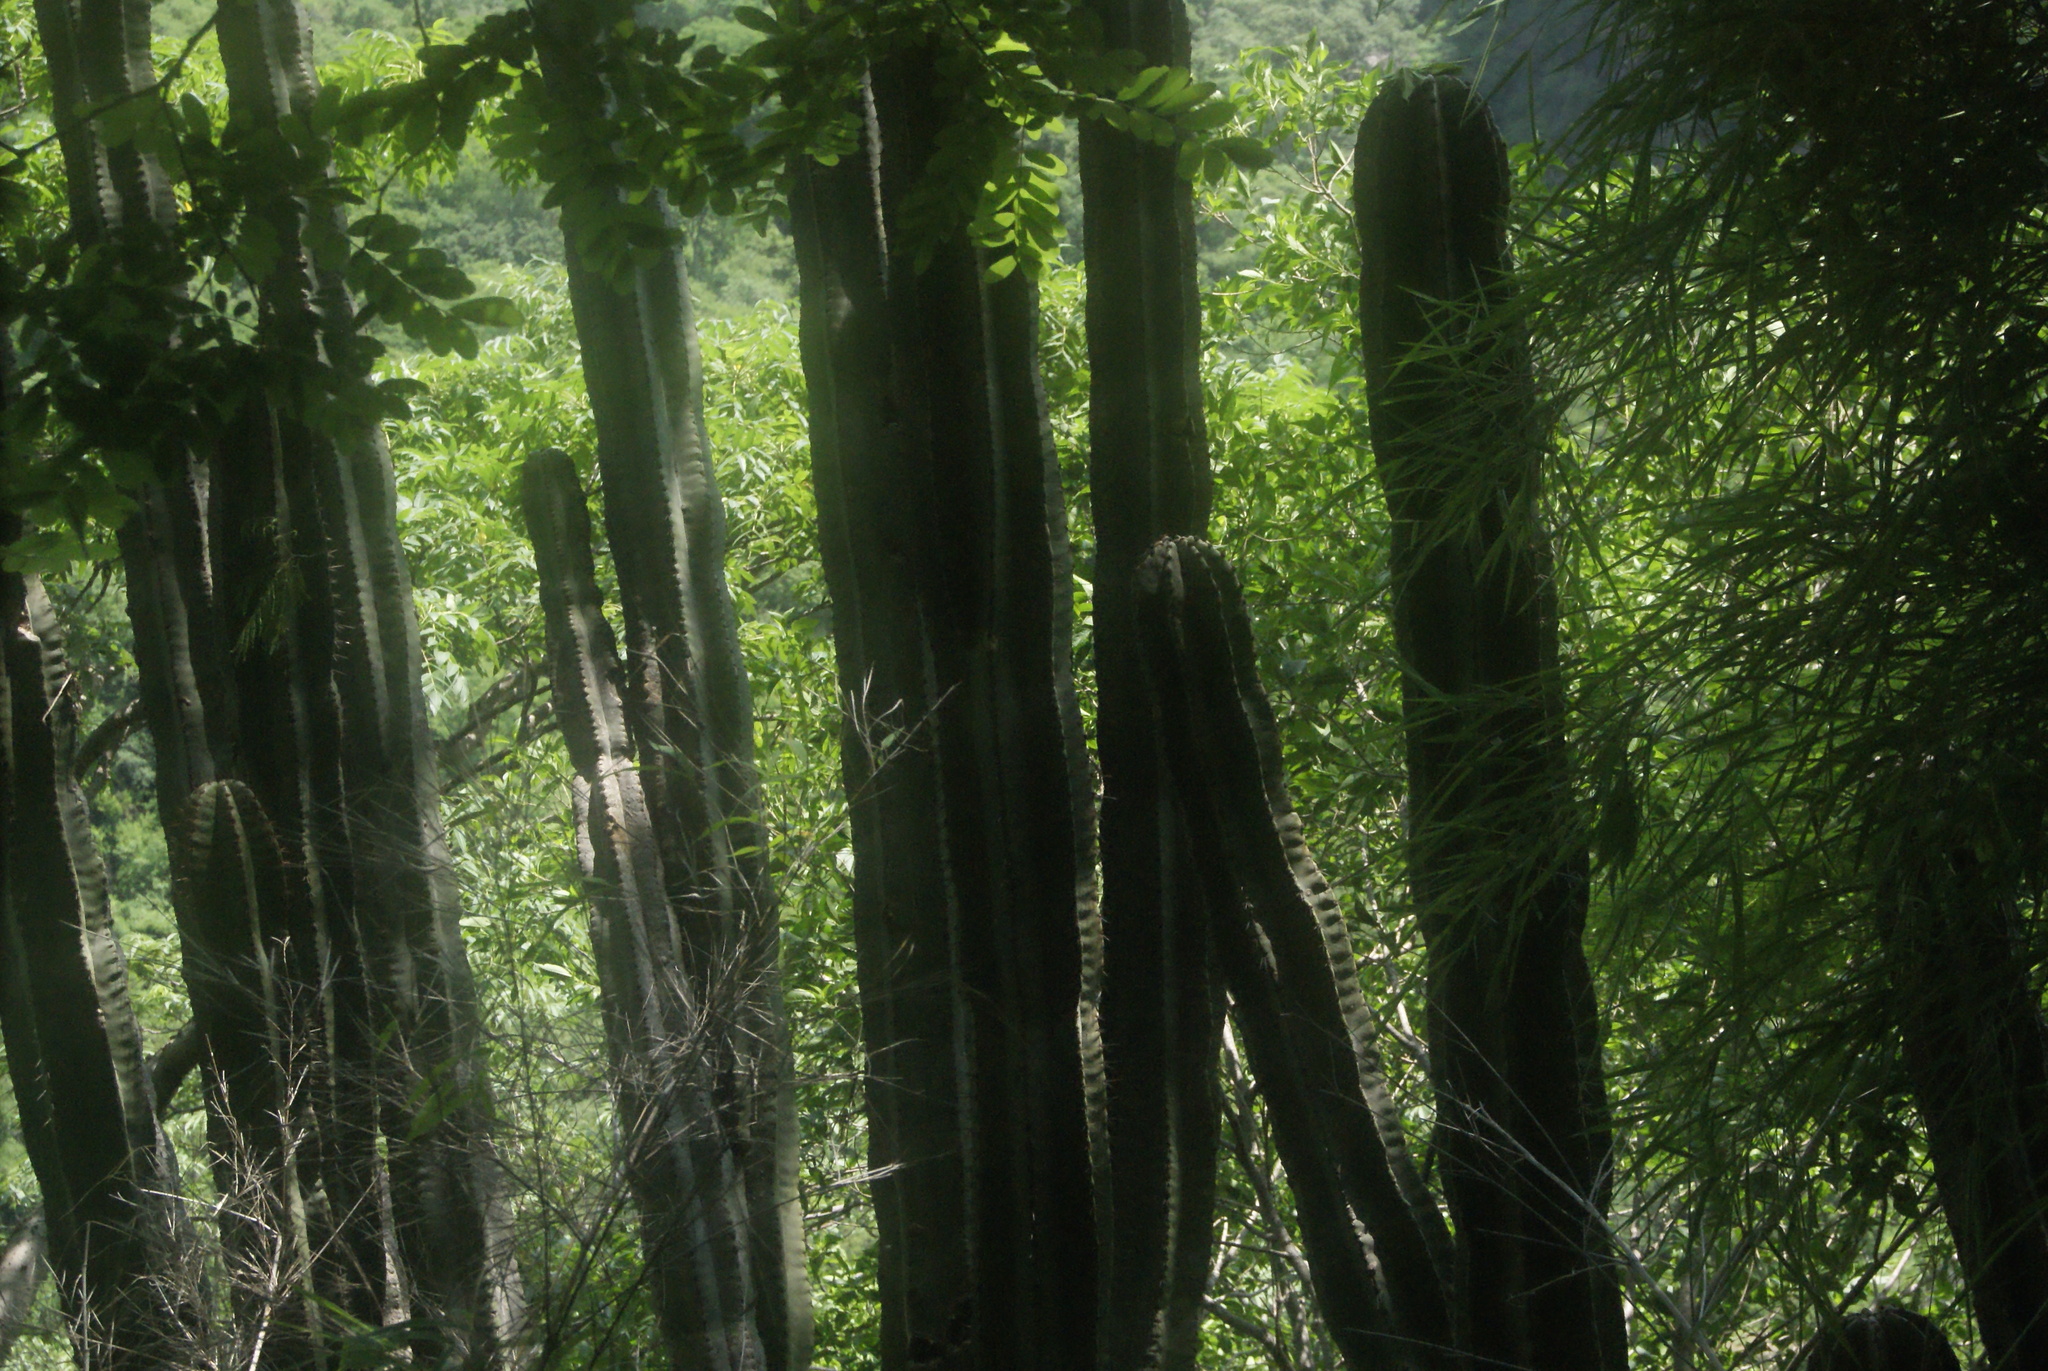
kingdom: Plantae
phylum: Tracheophyta
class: Magnoliopsida
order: Caryophyllales
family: Cactaceae
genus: Stenocereus
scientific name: Stenocereus queretaroensis
